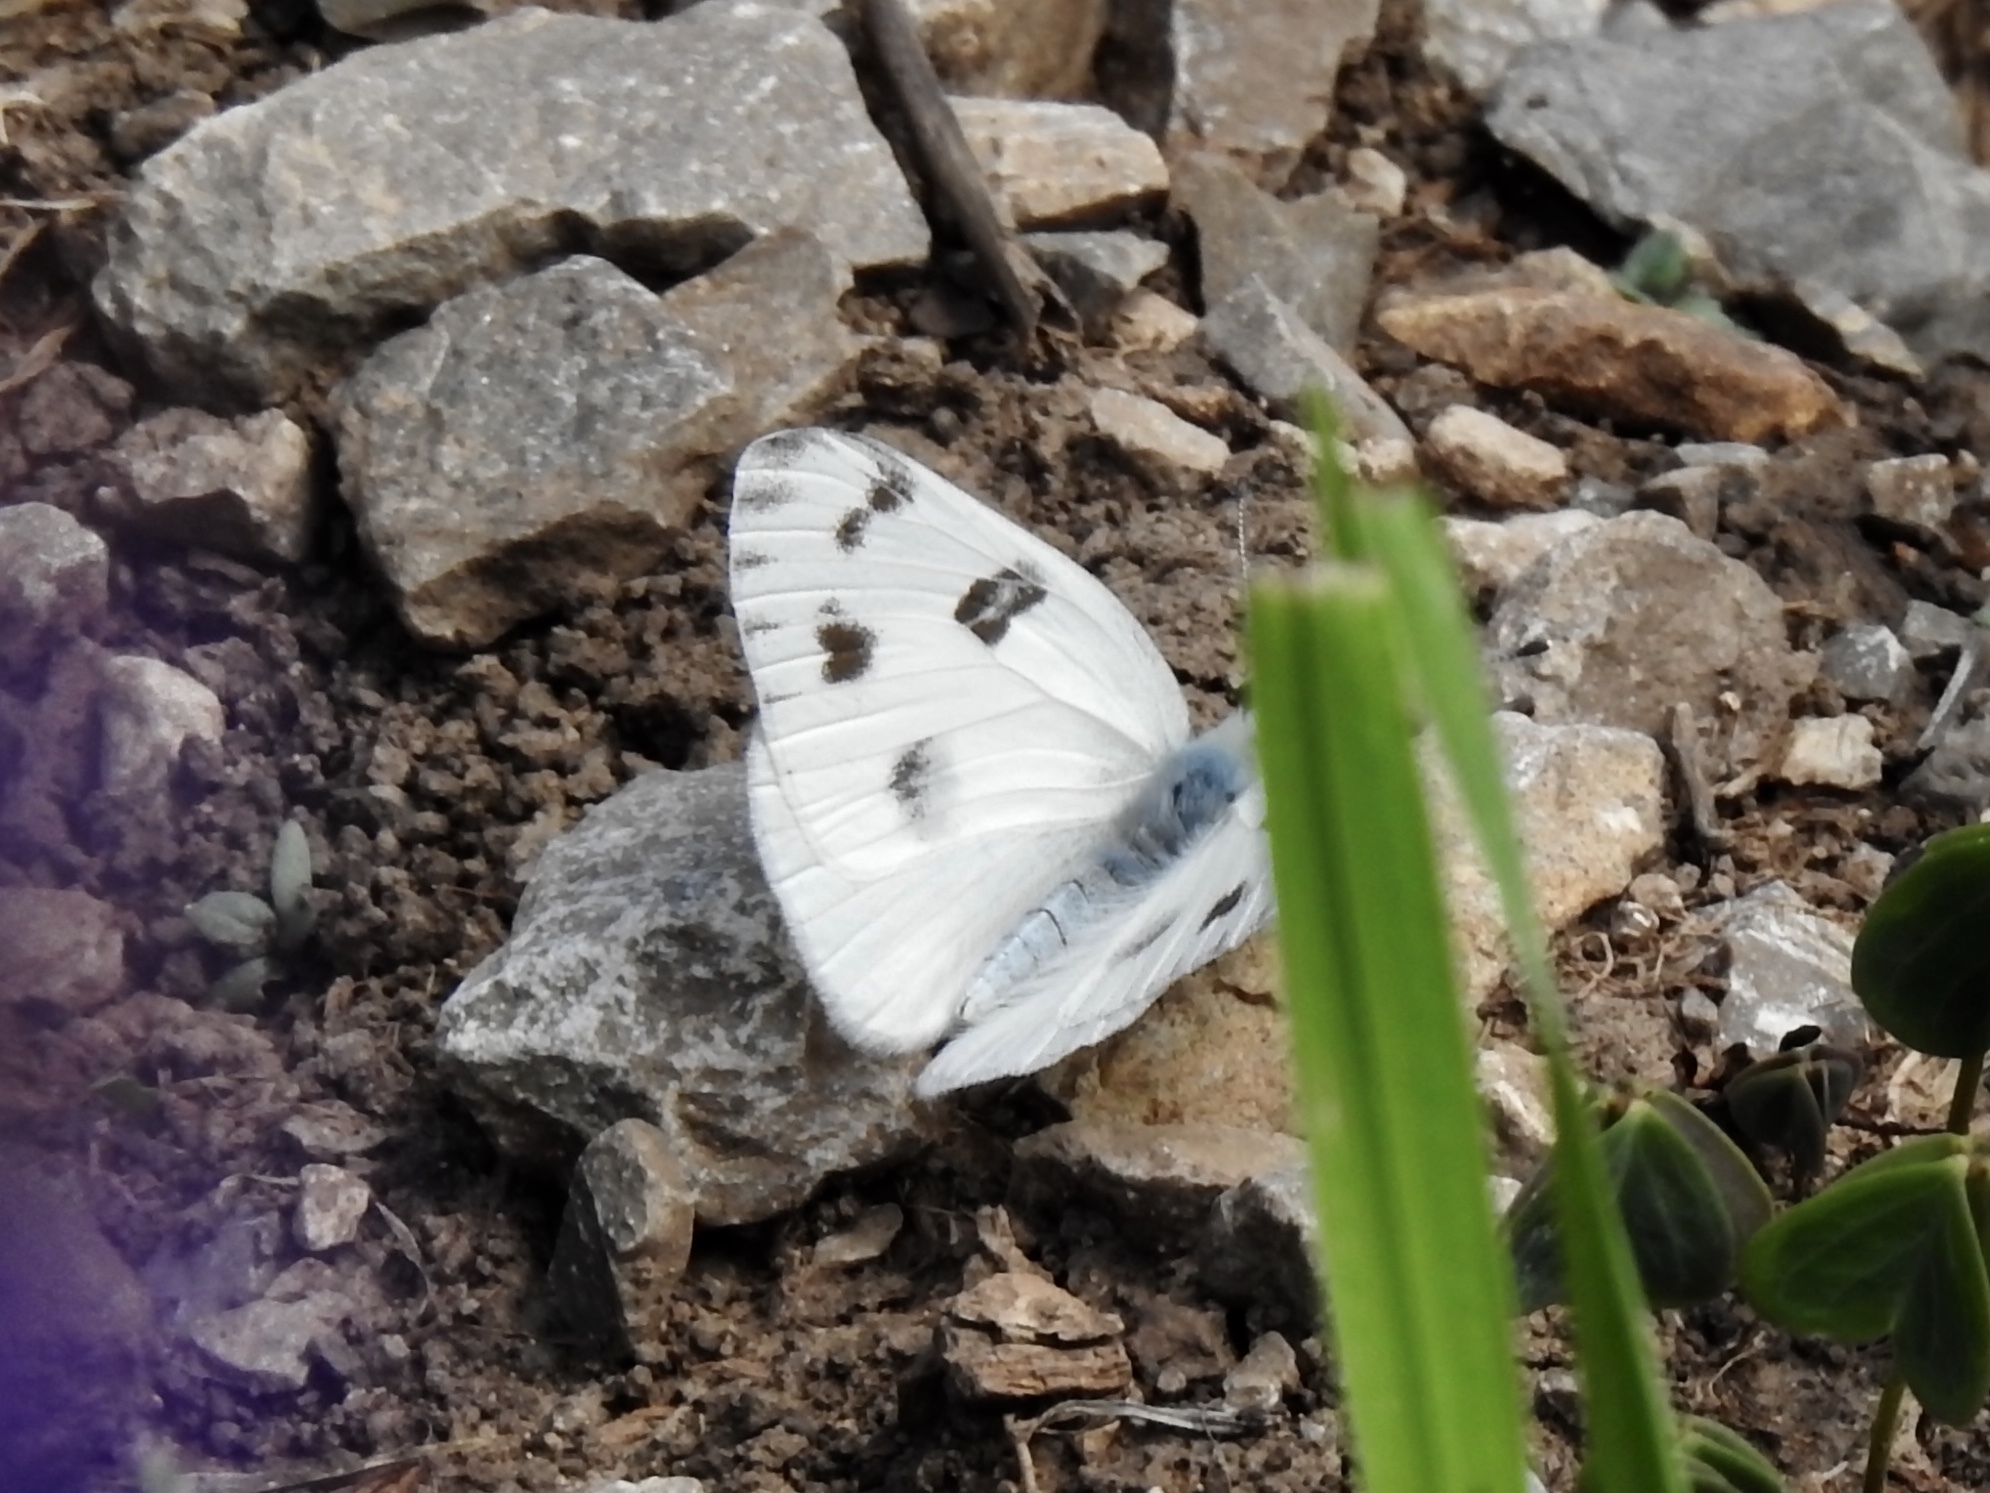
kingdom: Animalia
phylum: Arthropoda
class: Insecta
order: Lepidoptera
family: Pieridae
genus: Pontia
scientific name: Pontia protodice
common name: Checkered white
